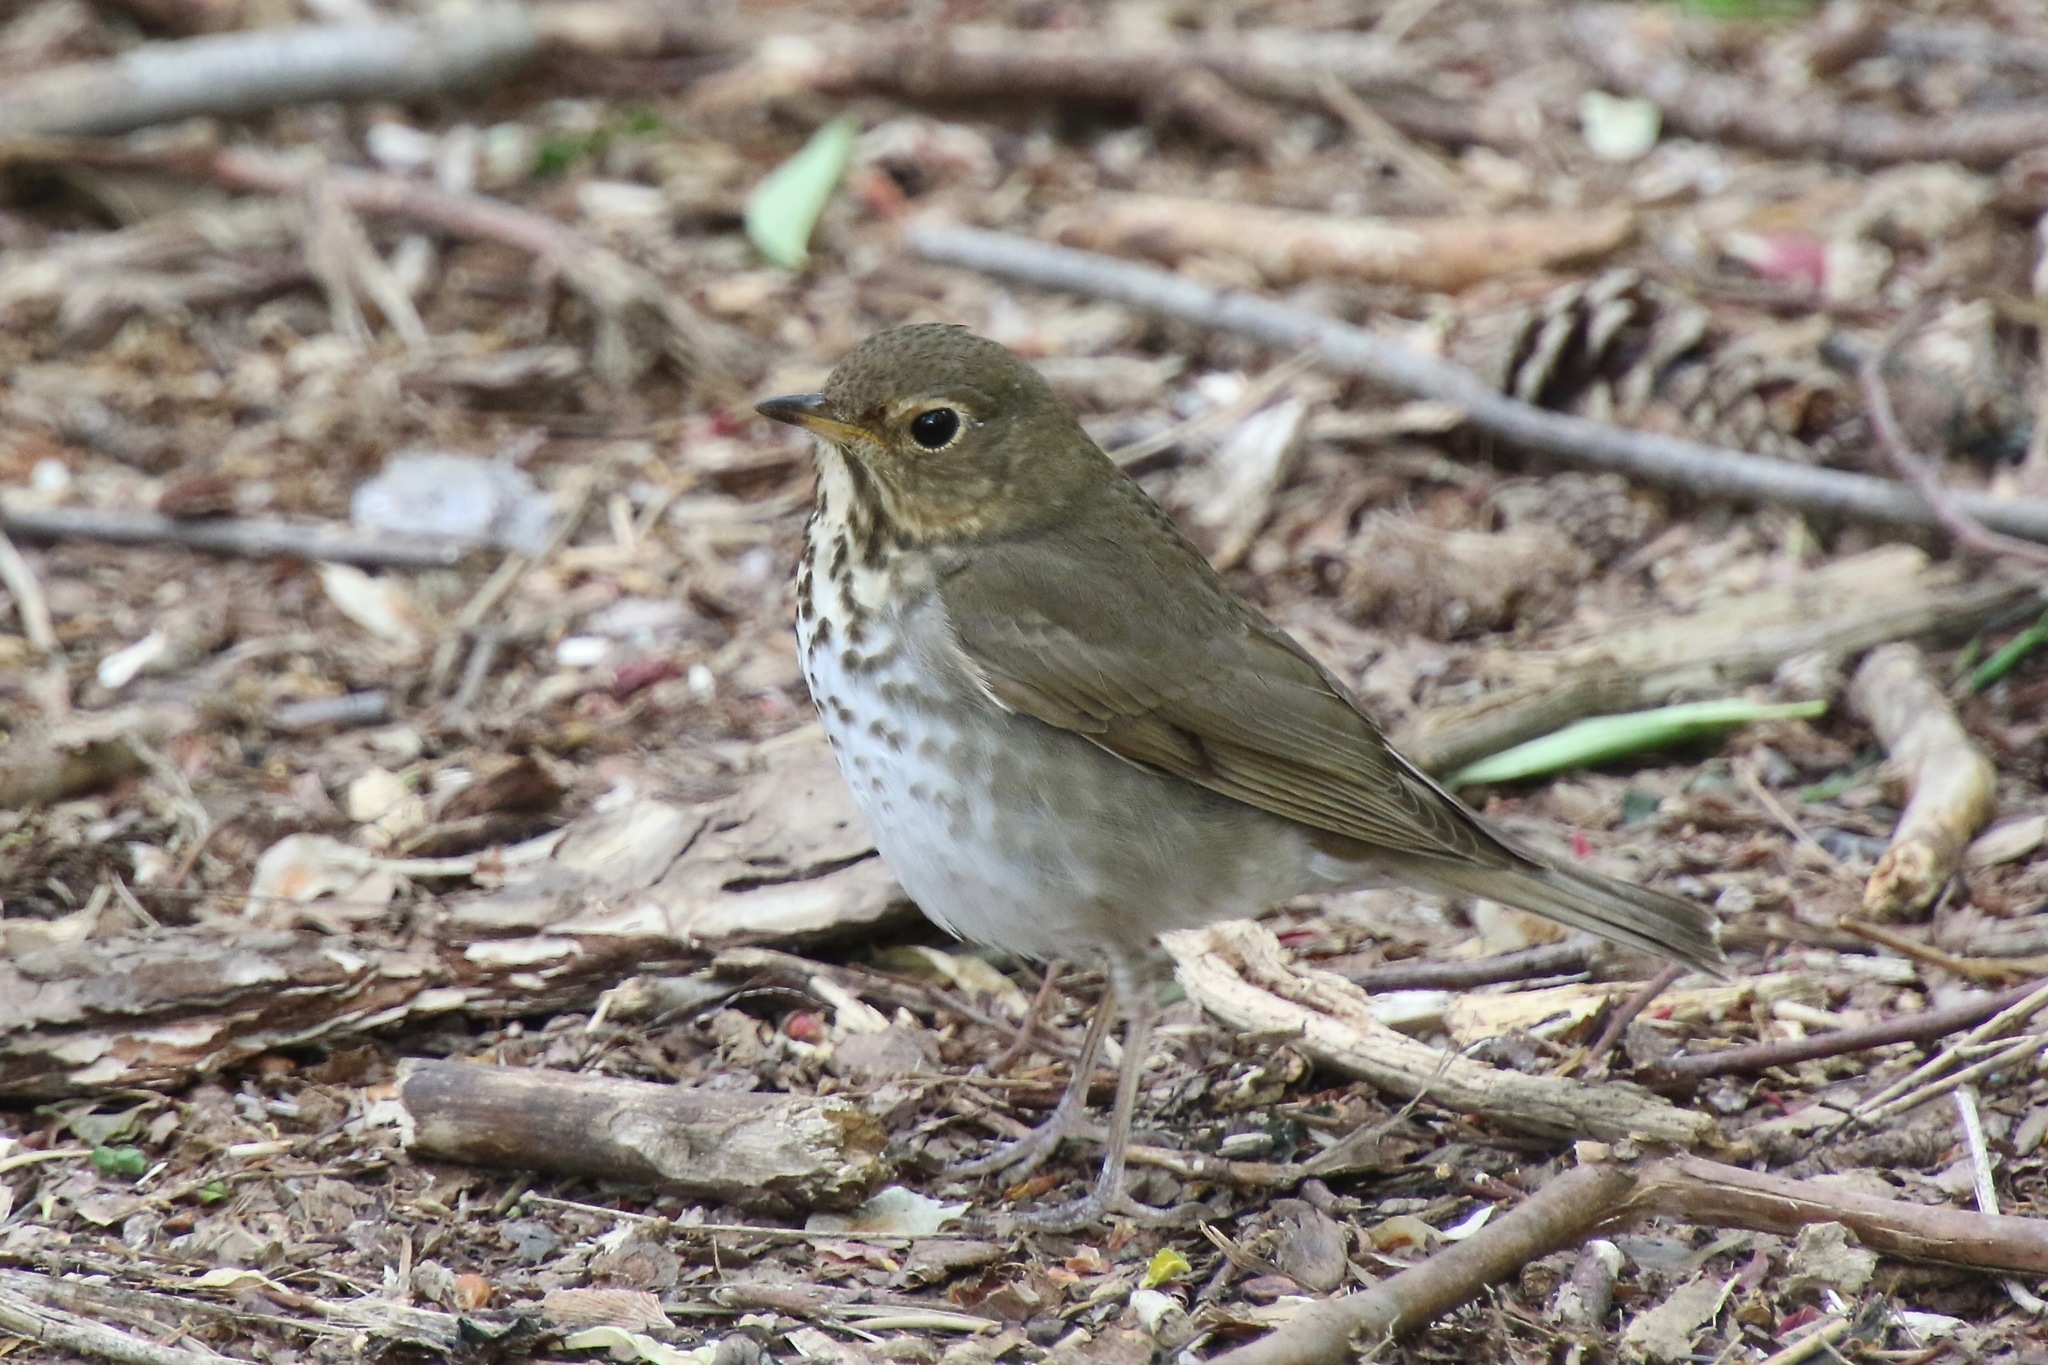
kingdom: Animalia
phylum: Chordata
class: Aves
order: Passeriformes
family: Turdidae
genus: Catharus
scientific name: Catharus ustulatus
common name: Swainson's thrush
